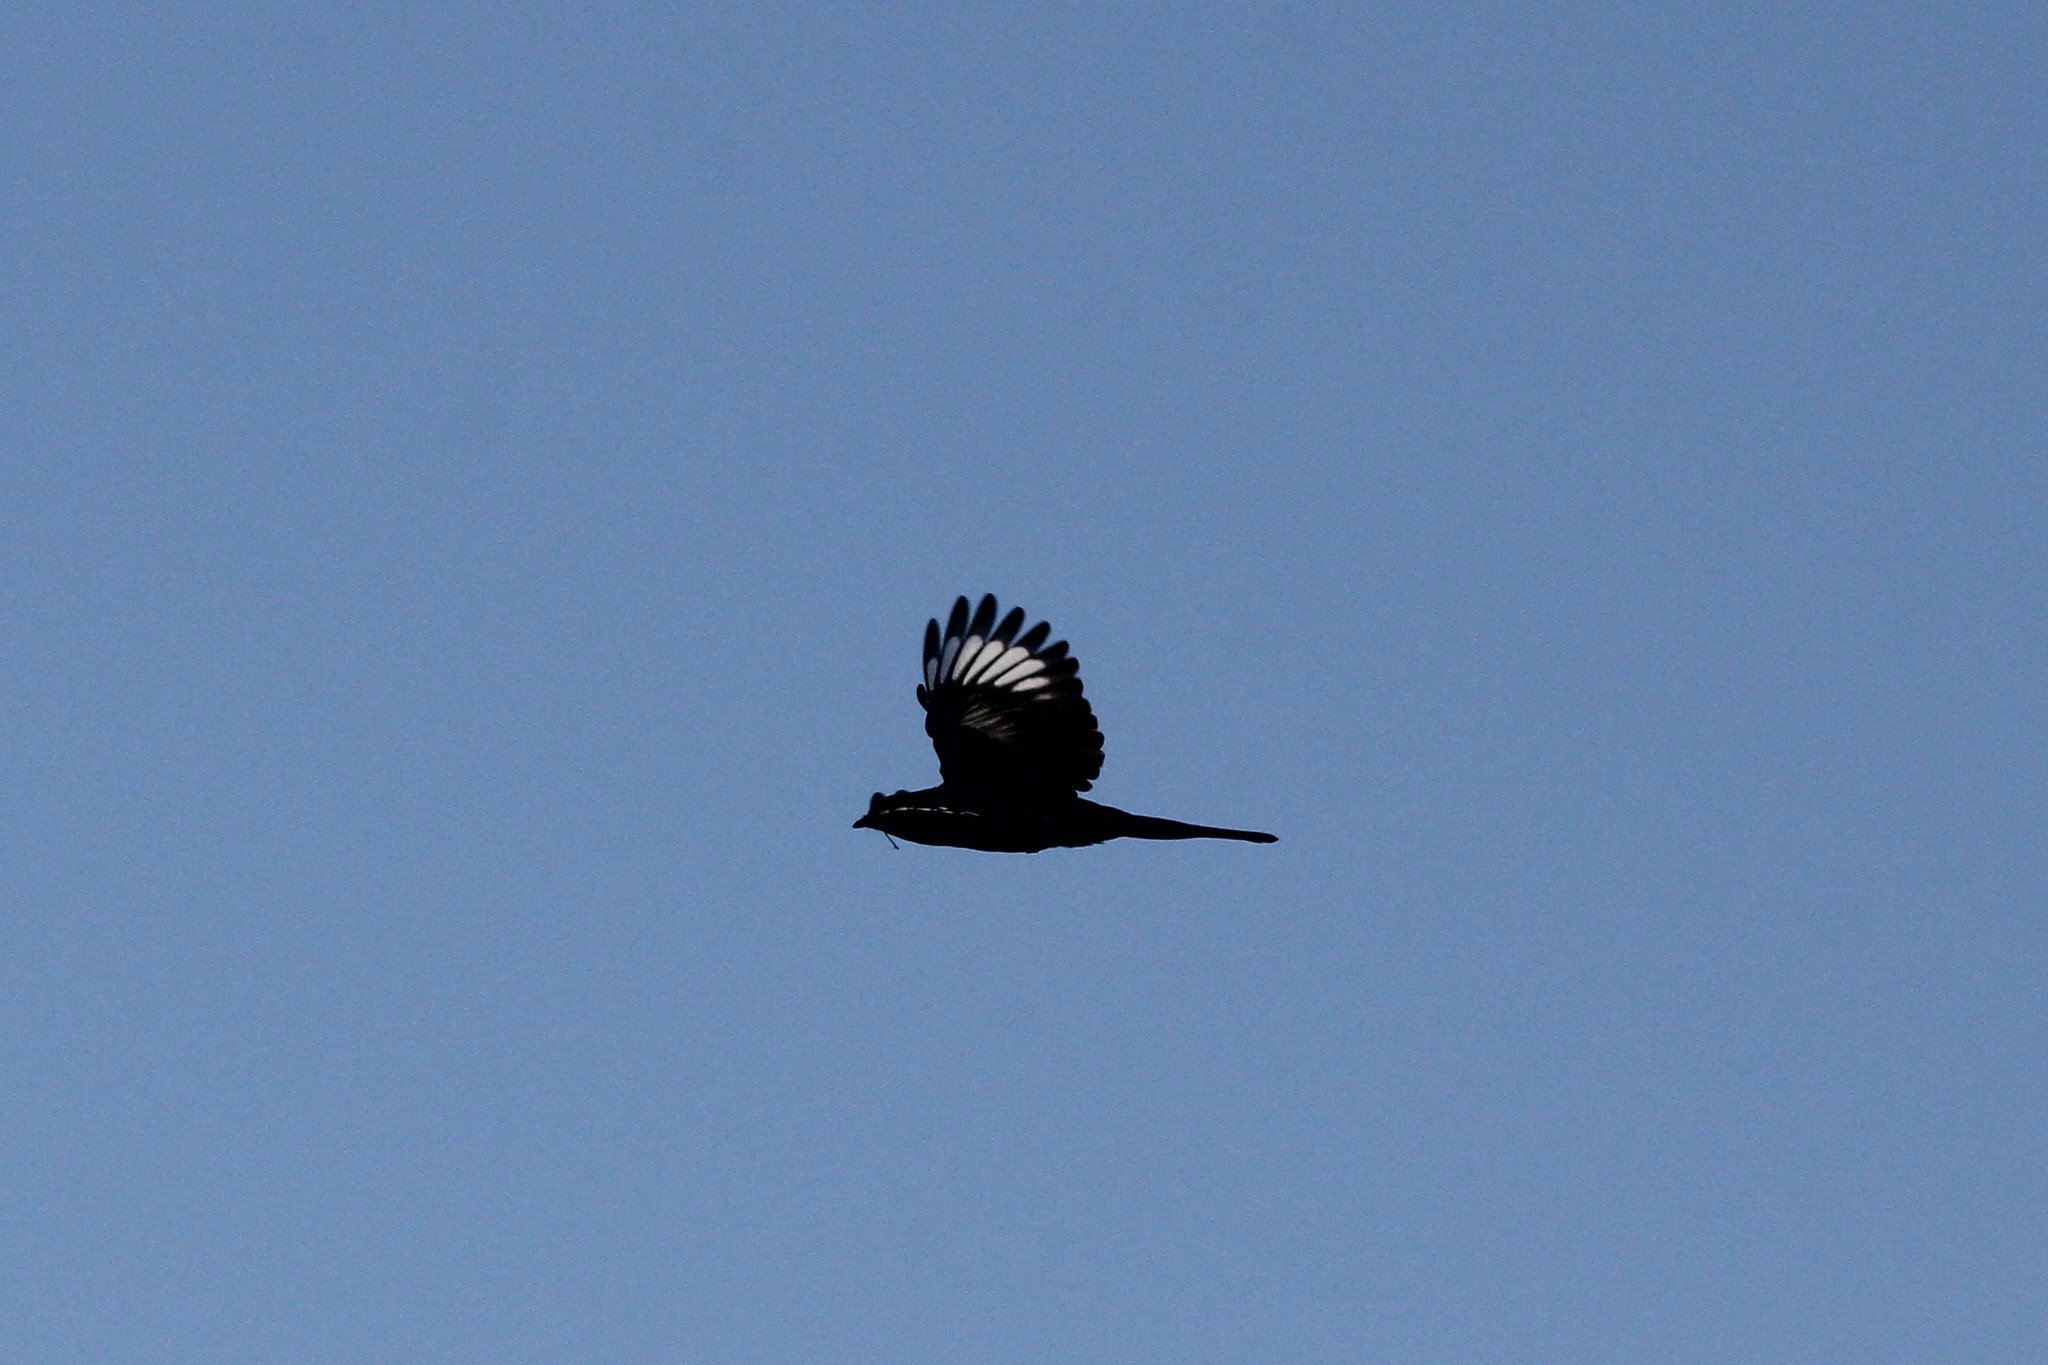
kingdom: Animalia
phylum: Chordata
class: Aves
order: Passeriformes
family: Ptilogonatidae
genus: Phainopepla
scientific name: Phainopepla nitens
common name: Phainopepla
